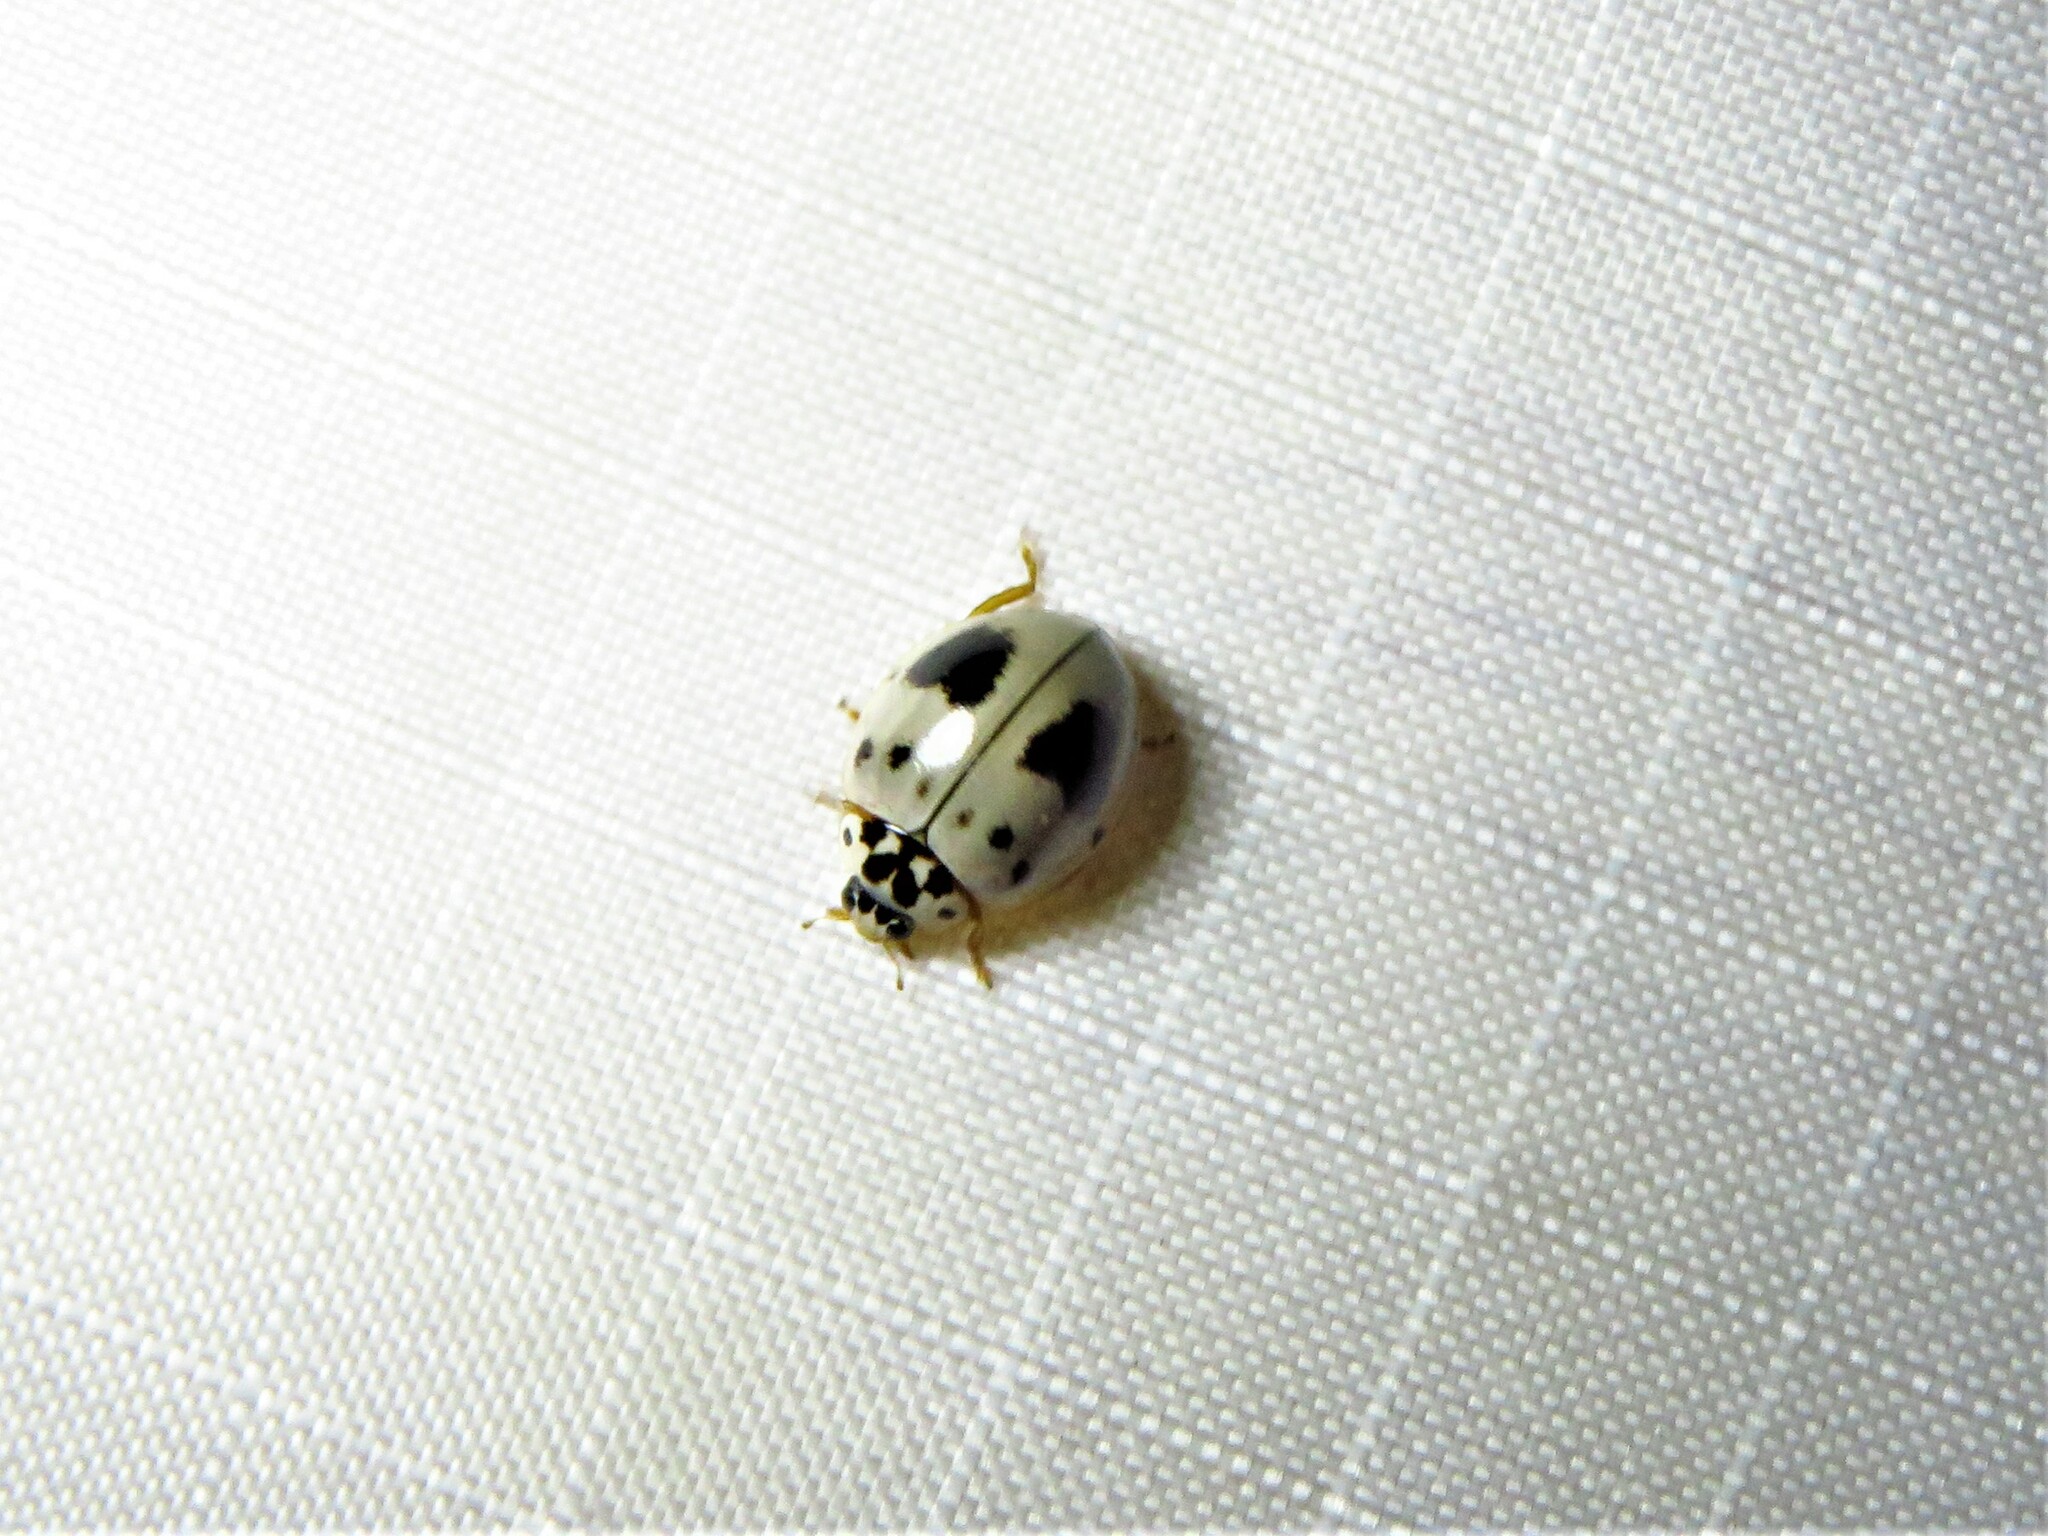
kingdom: Animalia
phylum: Arthropoda
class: Insecta
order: Coleoptera
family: Coccinellidae
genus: Olla
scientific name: Olla v-nigrum
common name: Ashy gray lady beetle
